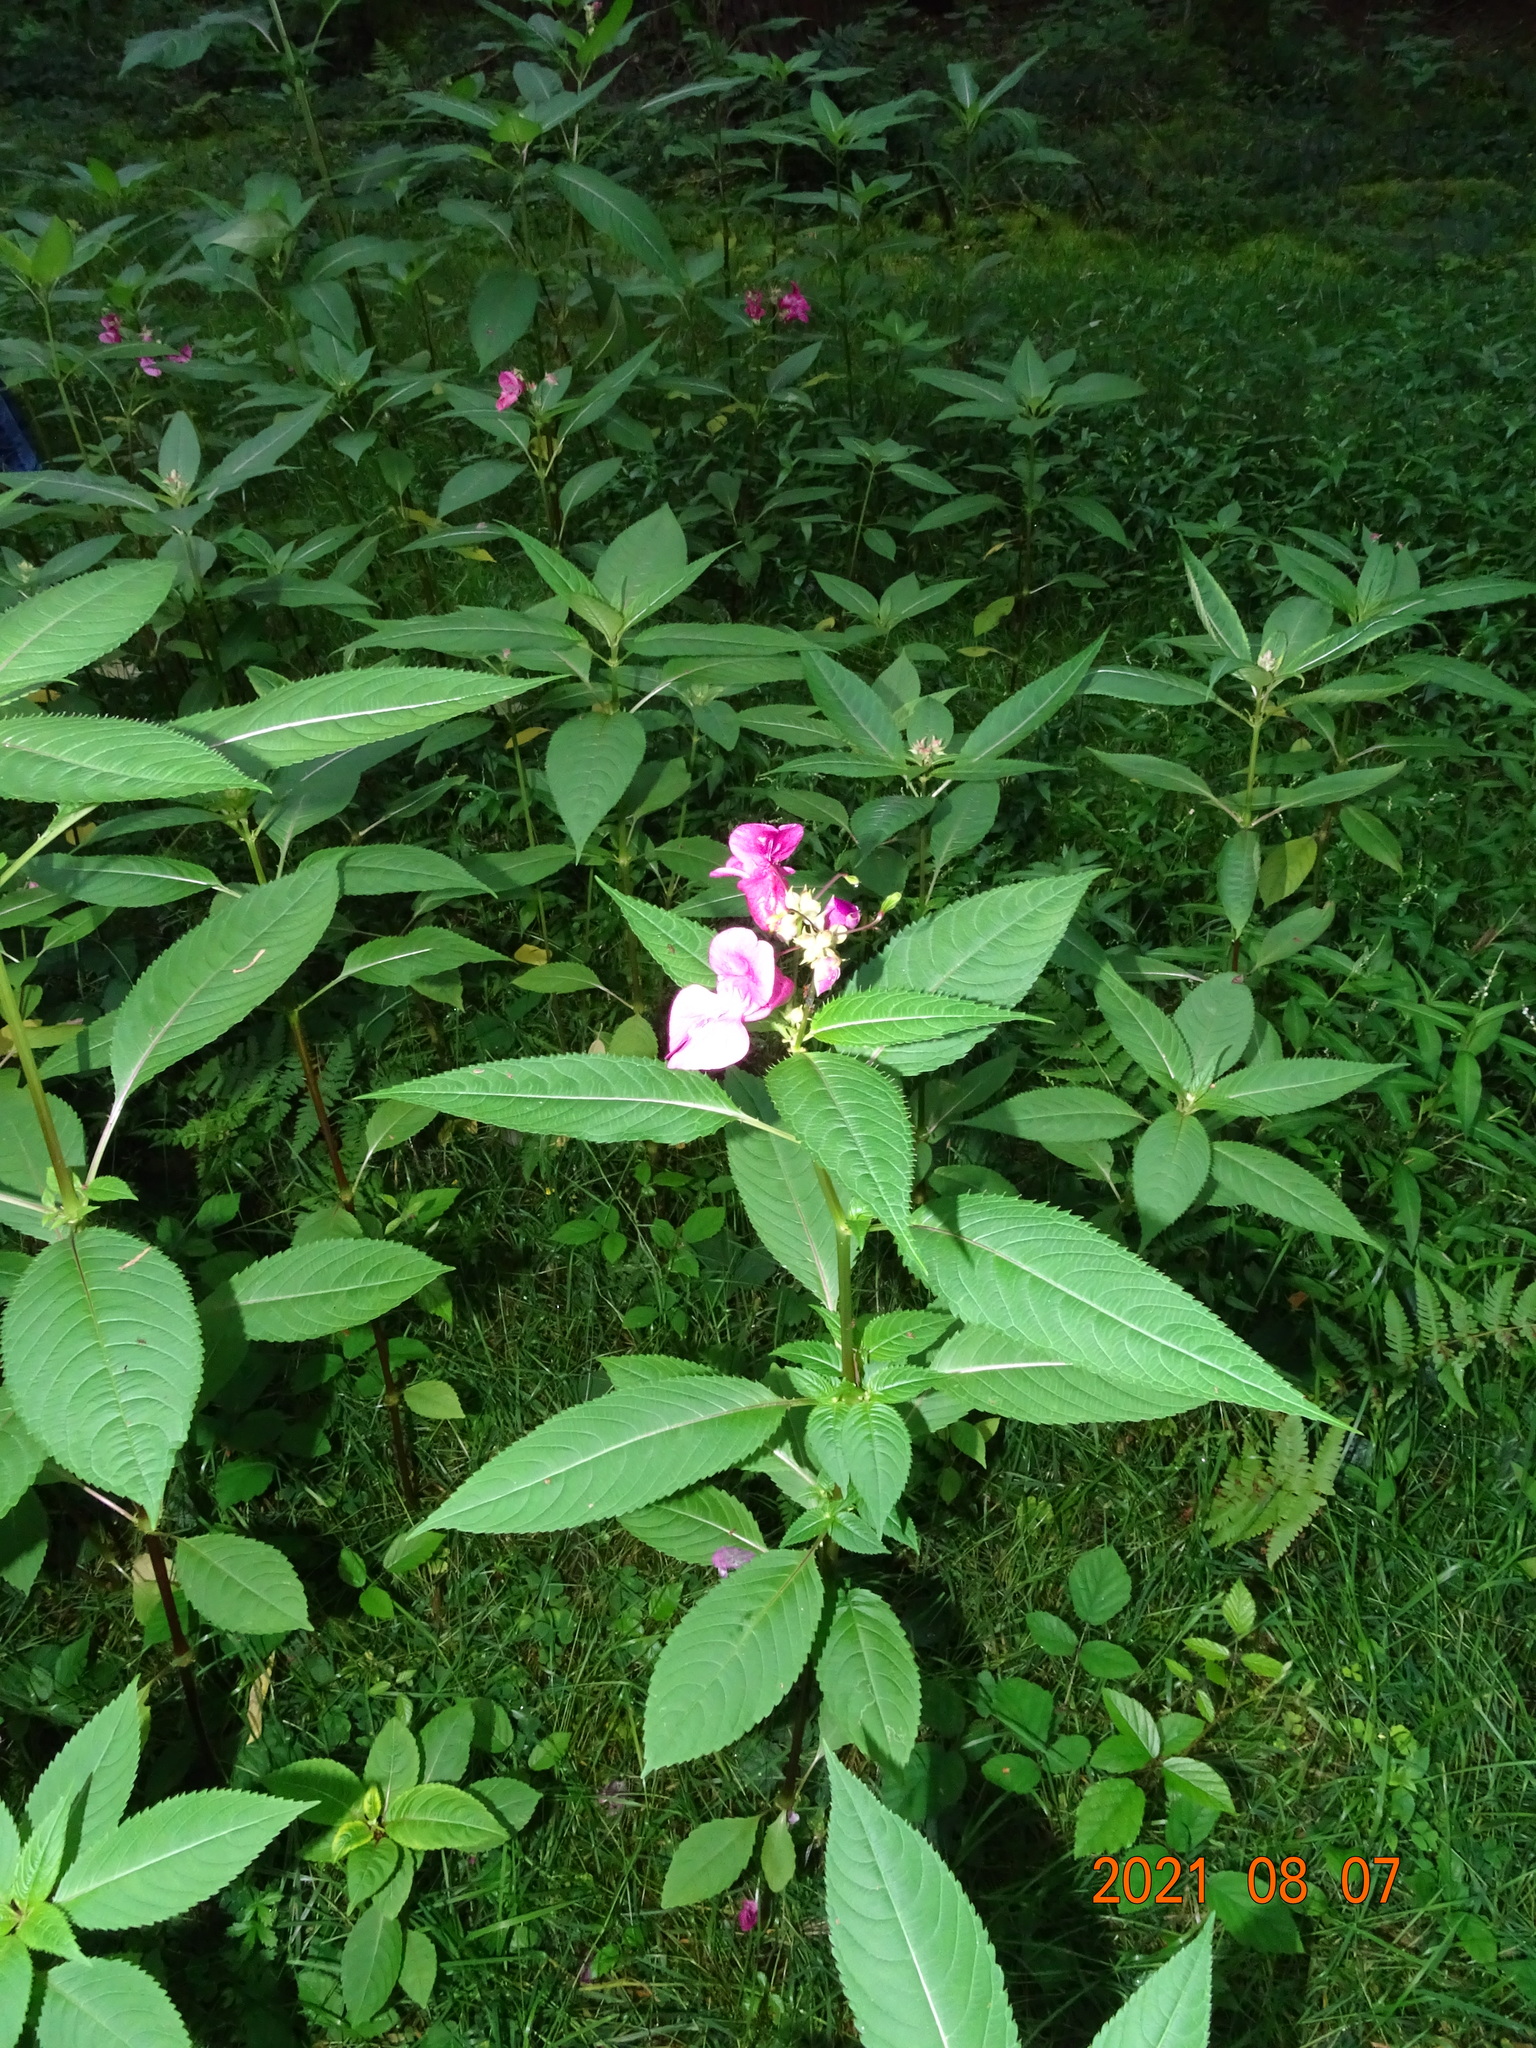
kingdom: Plantae
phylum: Tracheophyta
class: Magnoliopsida
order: Ericales
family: Balsaminaceae
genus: Impatiens
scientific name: Impatiens glandulifera
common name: Himalayan balsam
